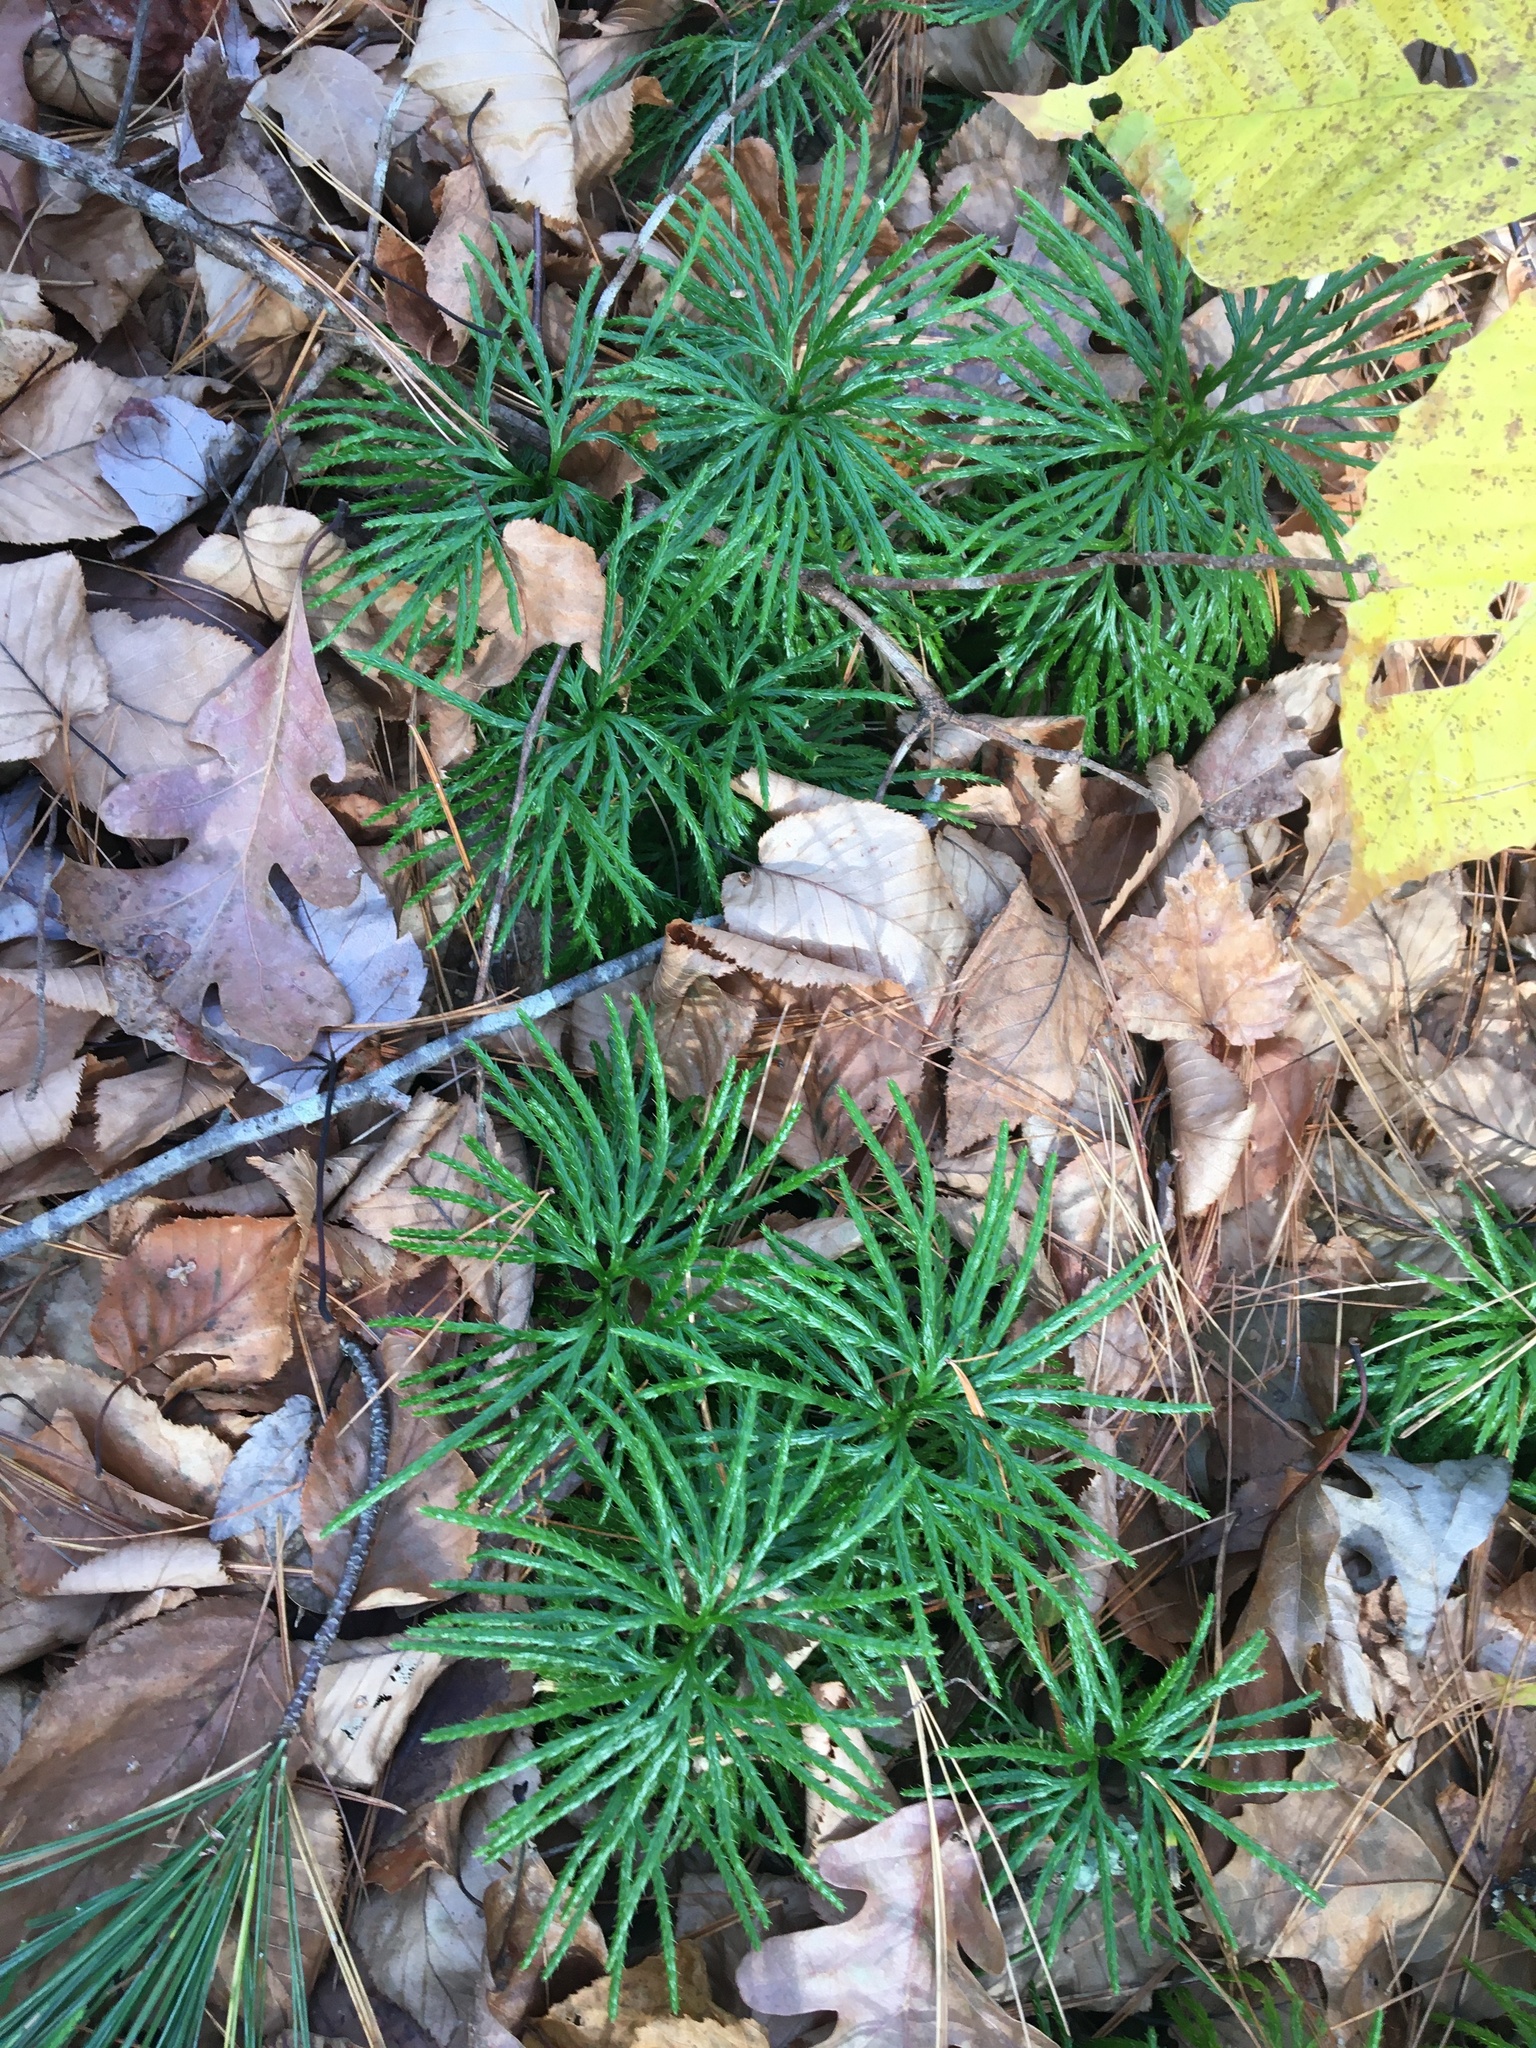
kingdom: Plantae
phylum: Tracheophyta
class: Lycopodiopsida
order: Lycopodiales
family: Lycopodiaceae
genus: Diphasiastrum
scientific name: Diphasiastrum digitatum
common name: Southern running-pine
